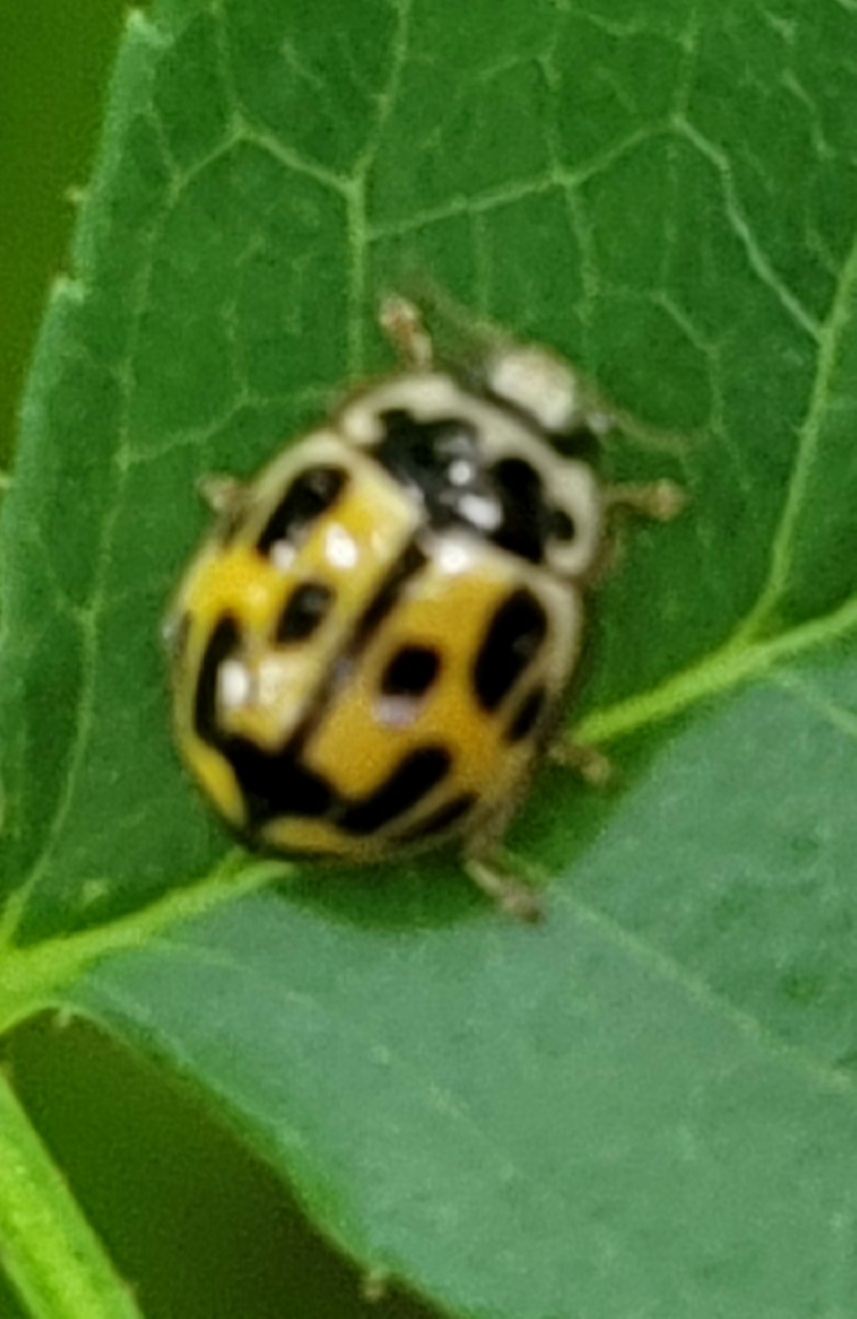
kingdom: Animalia
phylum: Arthropoda
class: Insecta
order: Coleoptera
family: Coccinellidae
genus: Propylaea
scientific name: Propylaea quatuordecimpunctata
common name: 14-spotted ladybird beetle
